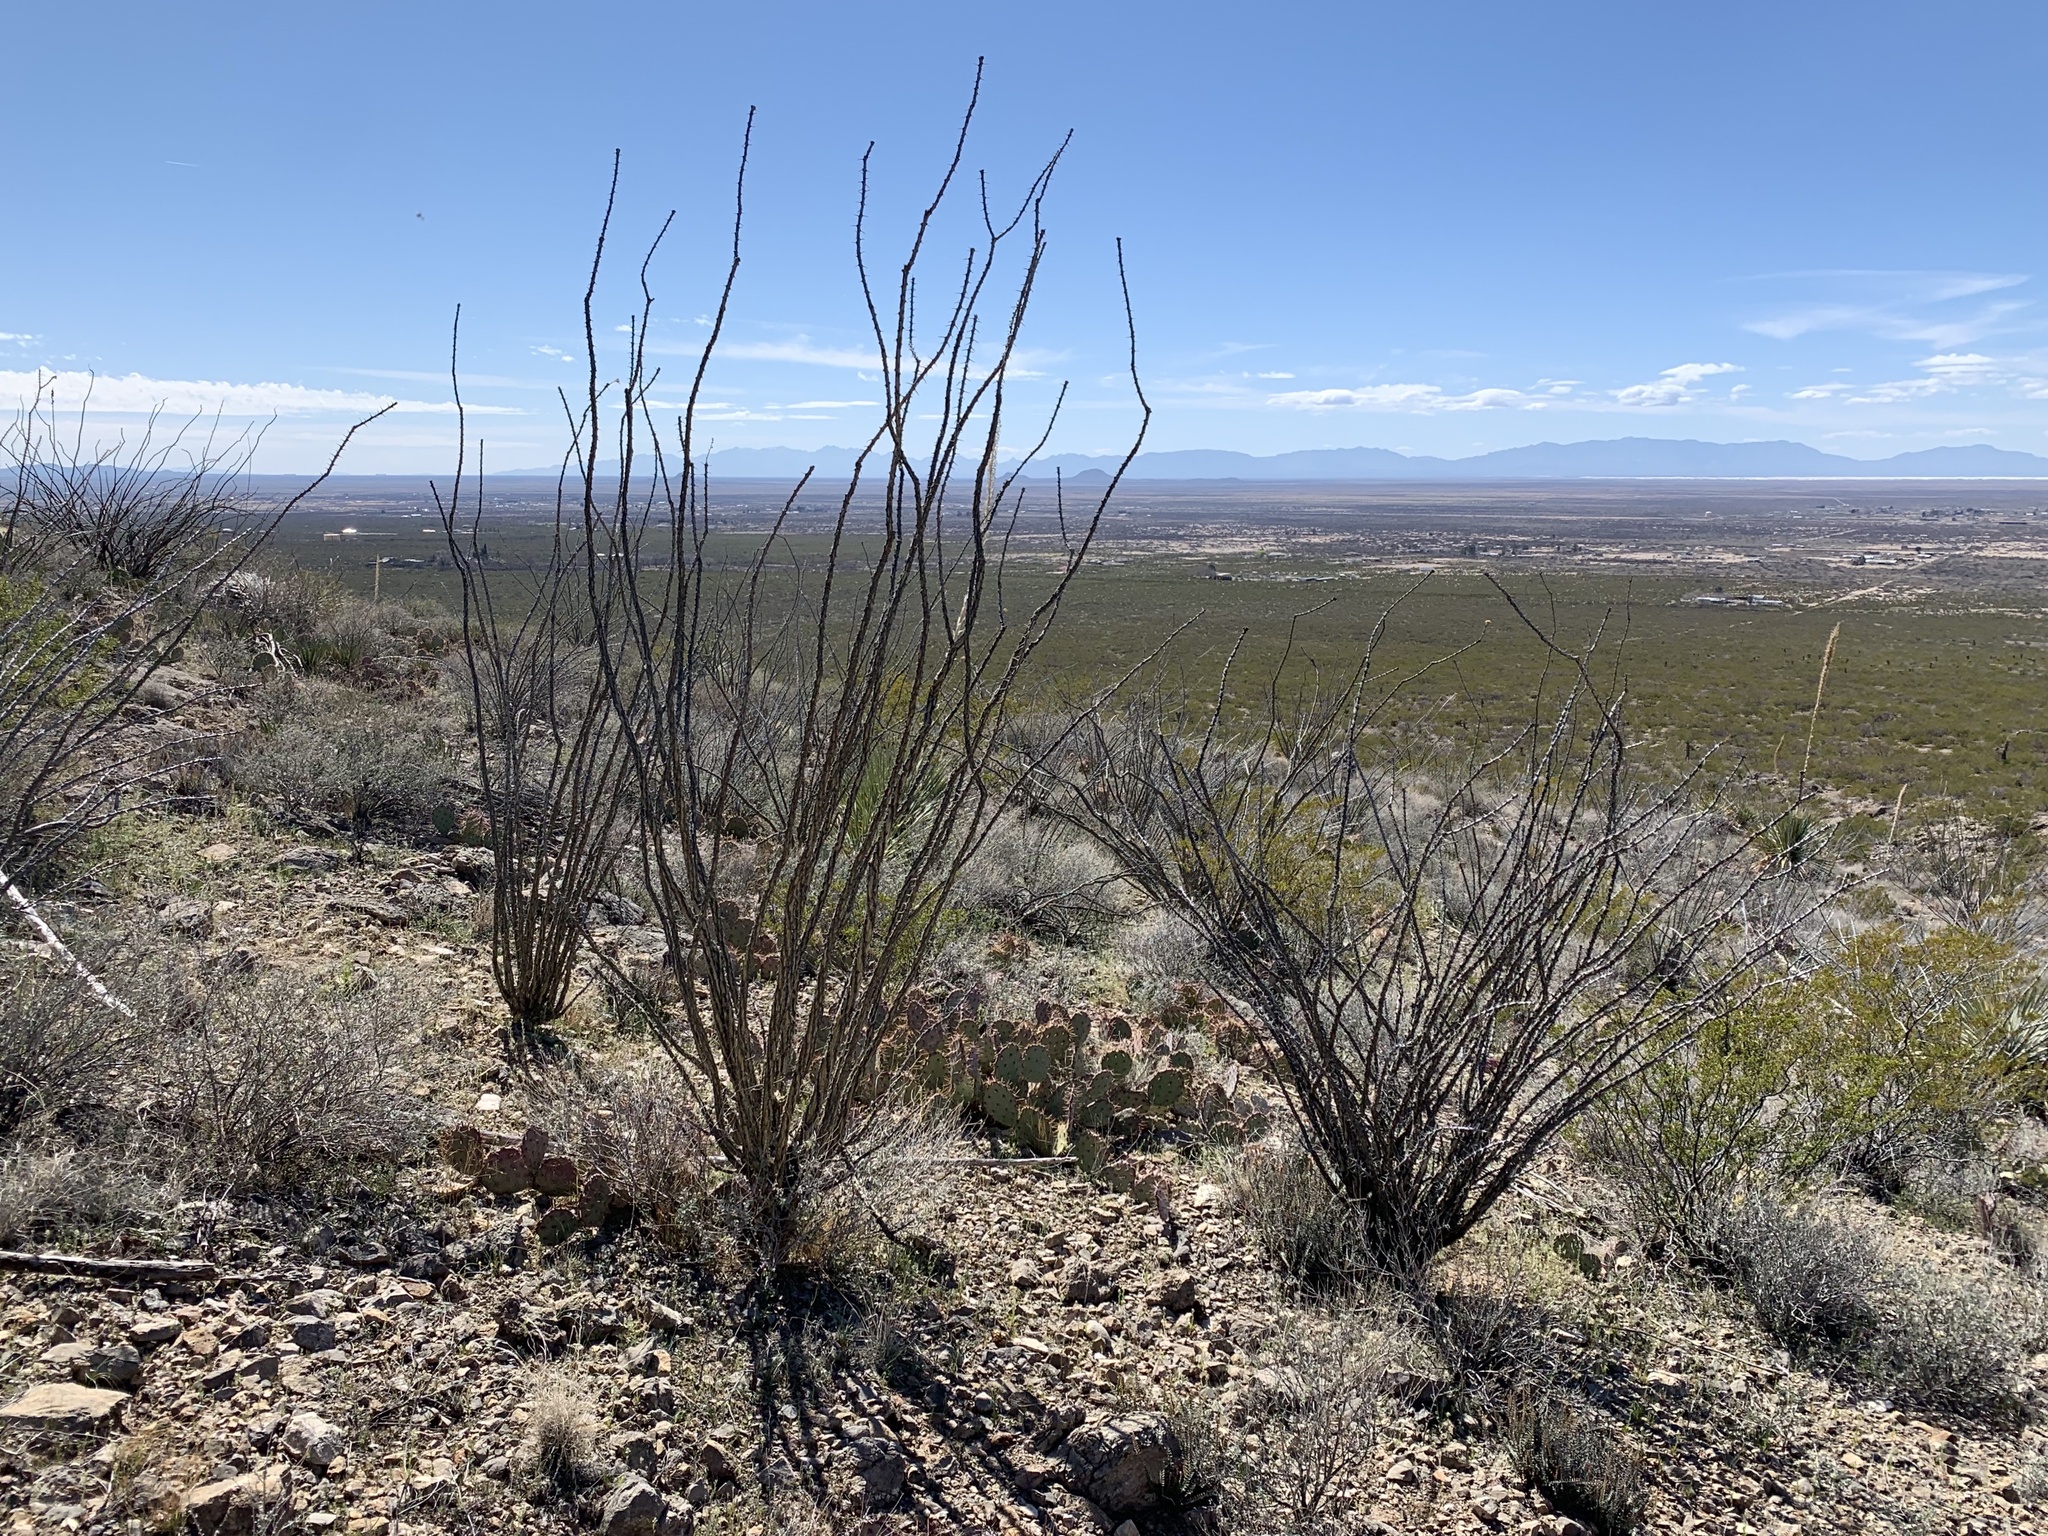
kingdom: Plantae
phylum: Tracheophyta
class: Magnoliopsida
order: Ericales
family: Fouquieriaceae
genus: Fouquieria
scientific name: Fouquieria splendens
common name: Vine-cactus
